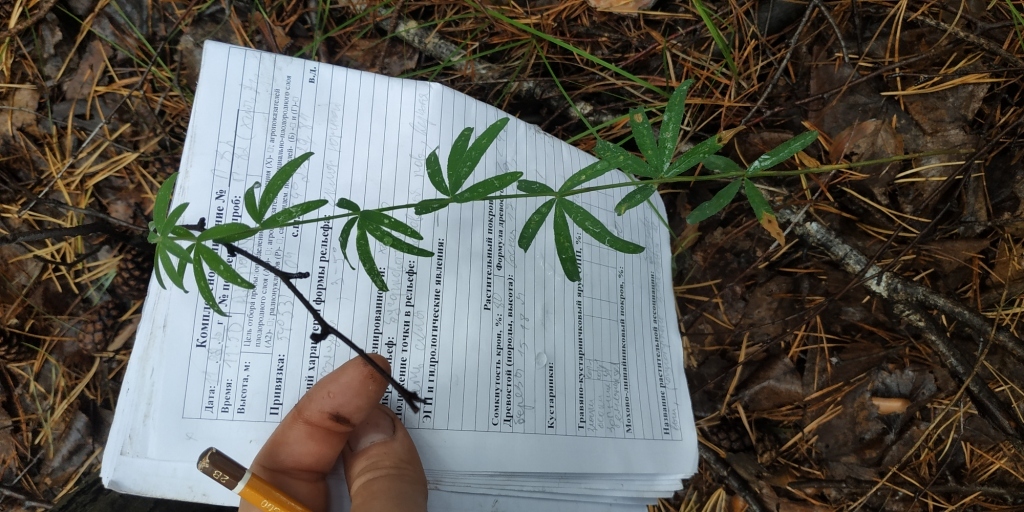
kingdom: Plantae
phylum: Tracheophyta
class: Magnoliopsida
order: Fabales
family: Fabaceae
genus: Trifolium
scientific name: Trifolium lupinaster
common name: Lupine clover
